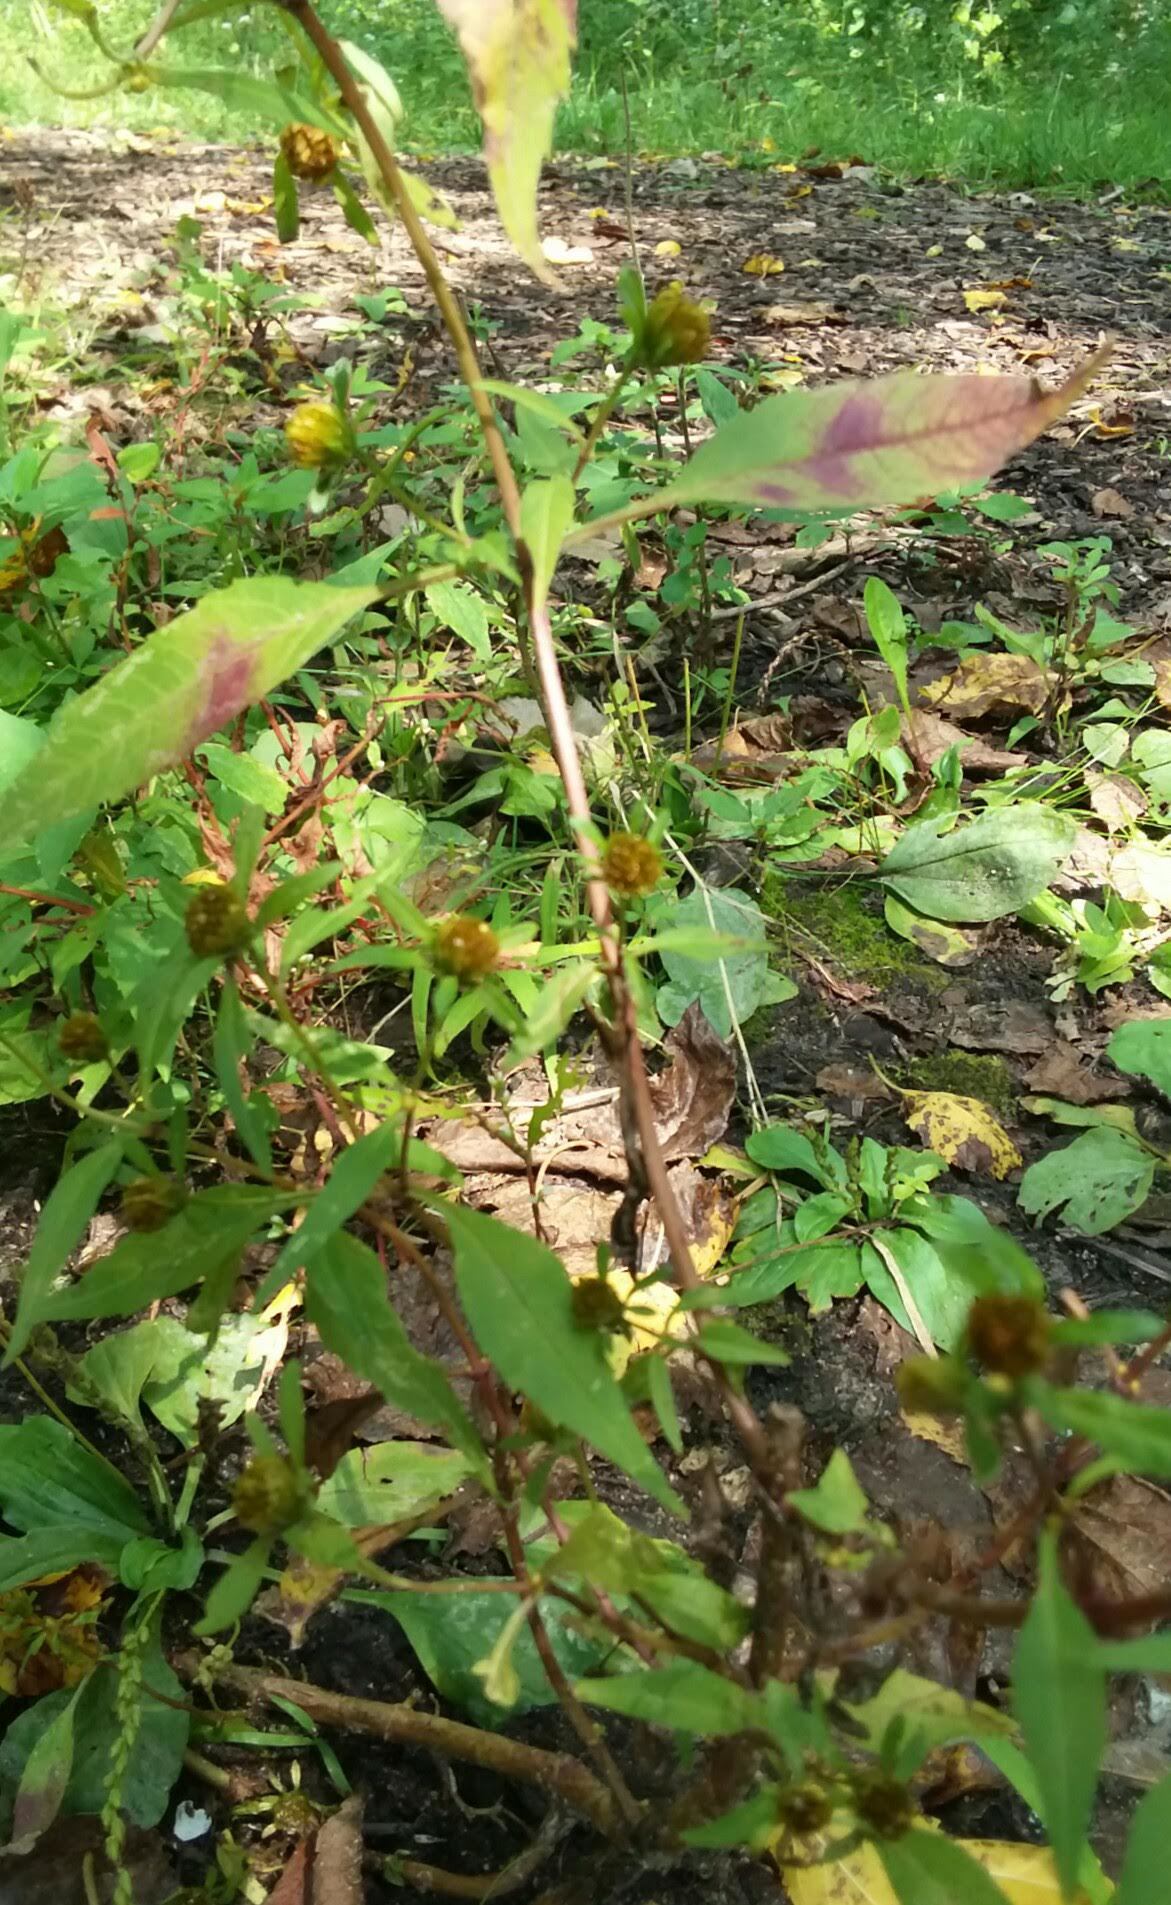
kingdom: Plantae
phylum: Tracheophyta
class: Magnoliopsida
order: Asterales
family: Asteraceae
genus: Bidens
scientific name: Bidens connata
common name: London bur-marigold
